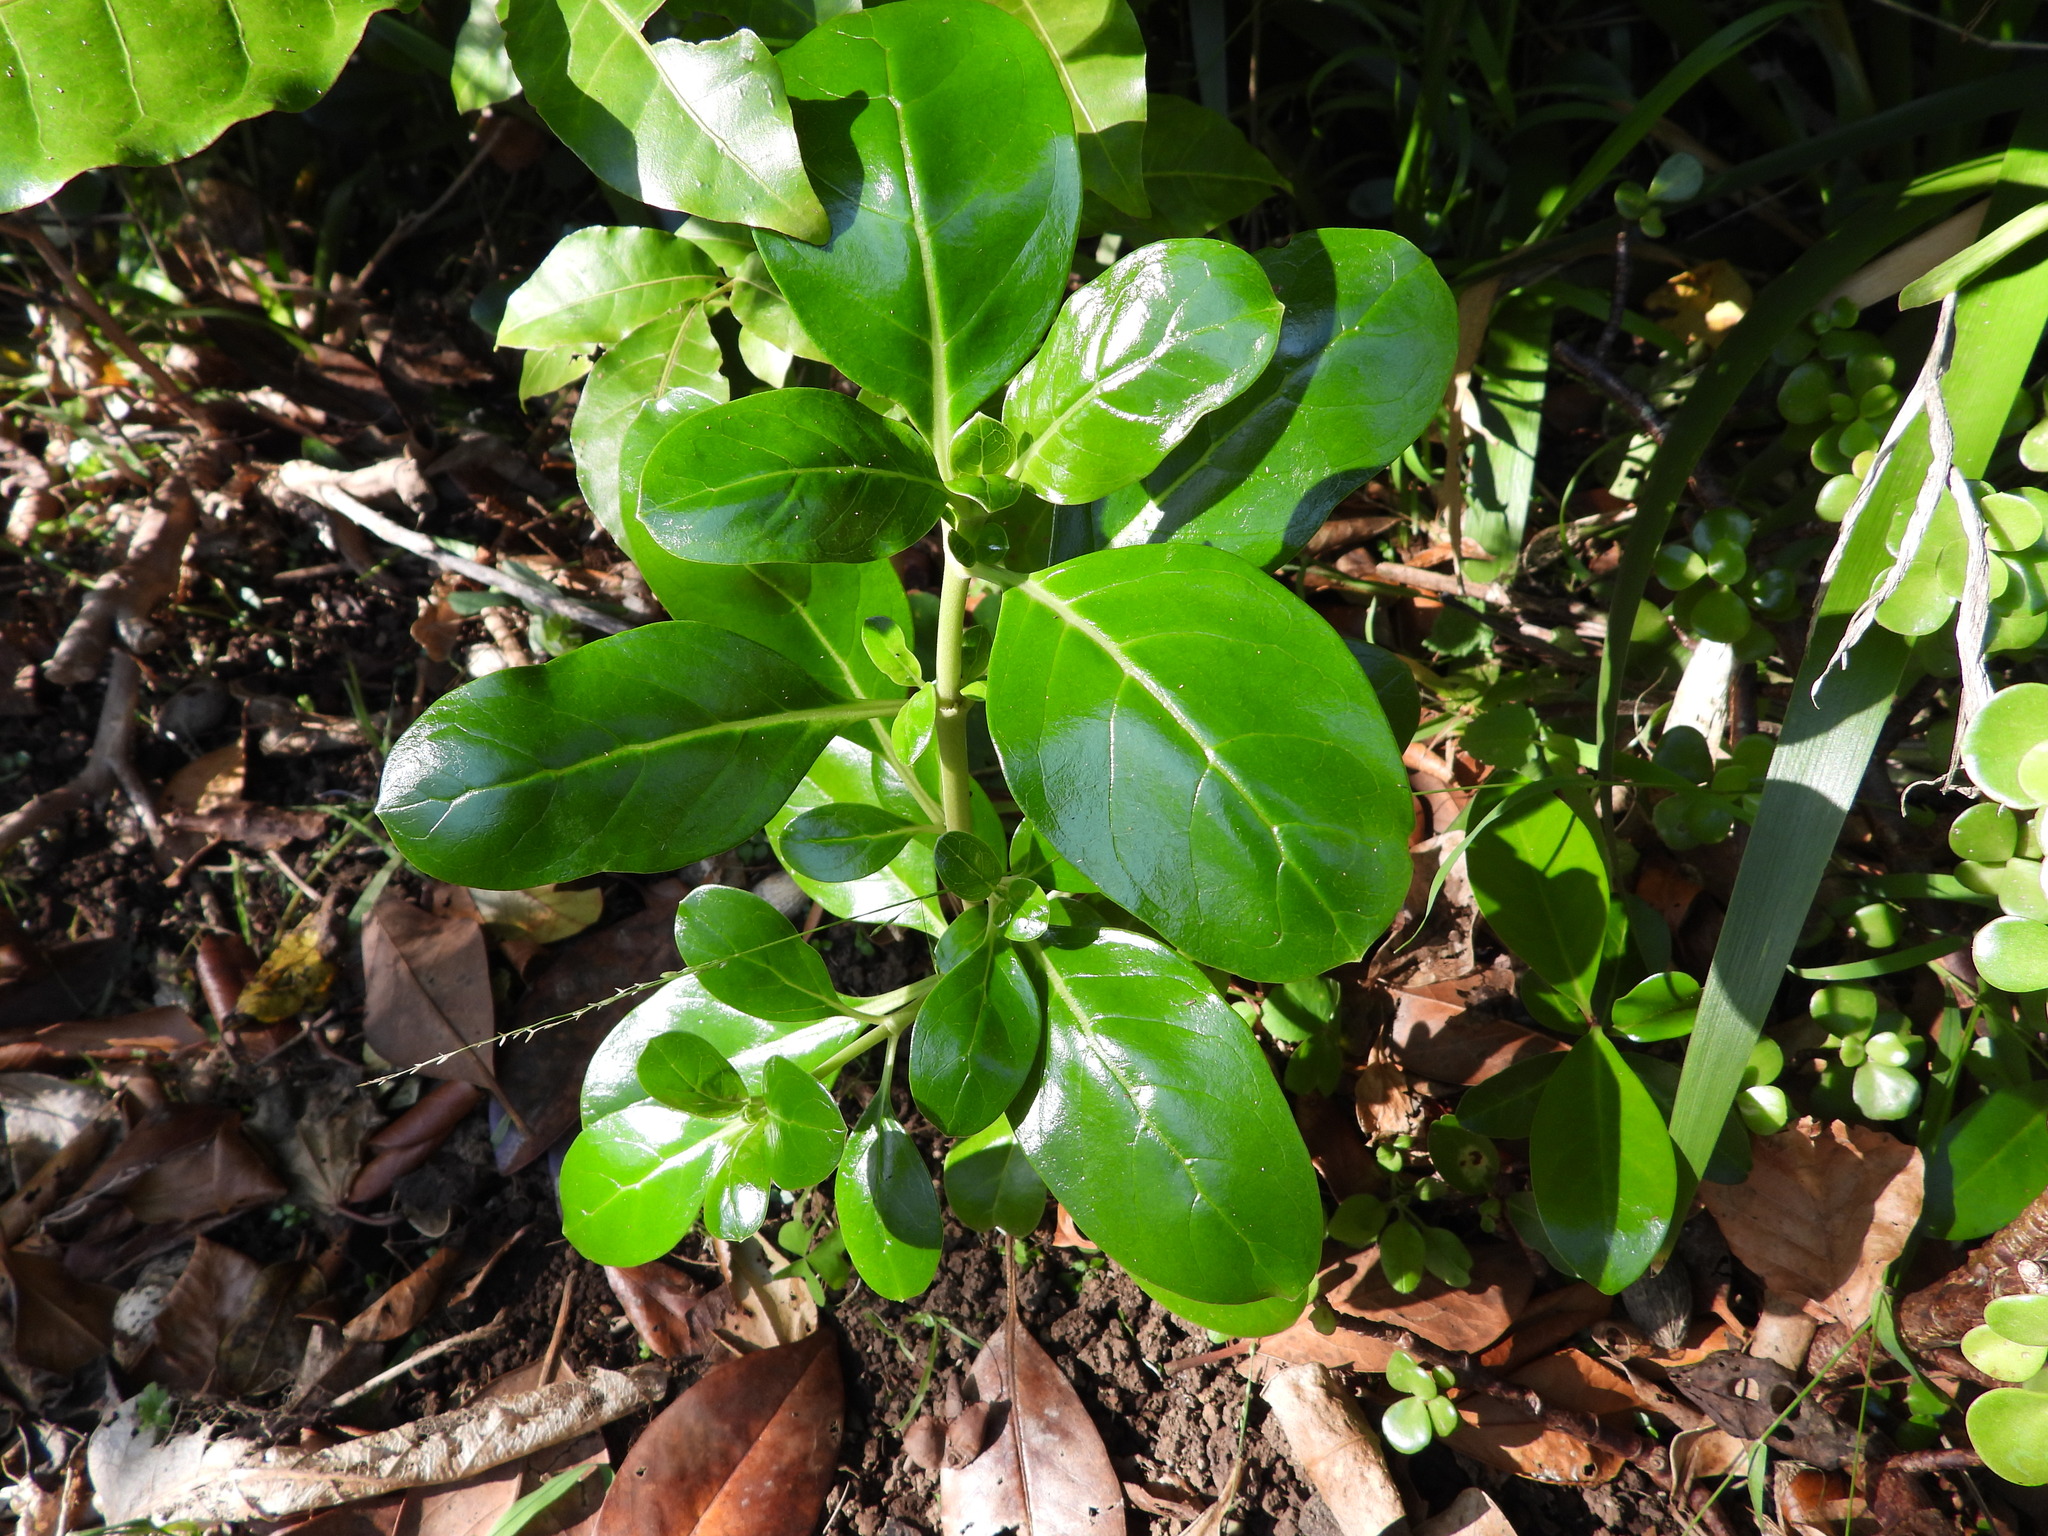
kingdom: Plantae
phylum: Tracheophyta
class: Magnoliopsida
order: Gentianales
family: Rubiaceae
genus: Coprosma
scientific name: Coprosma repens
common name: Tree bedstraw
